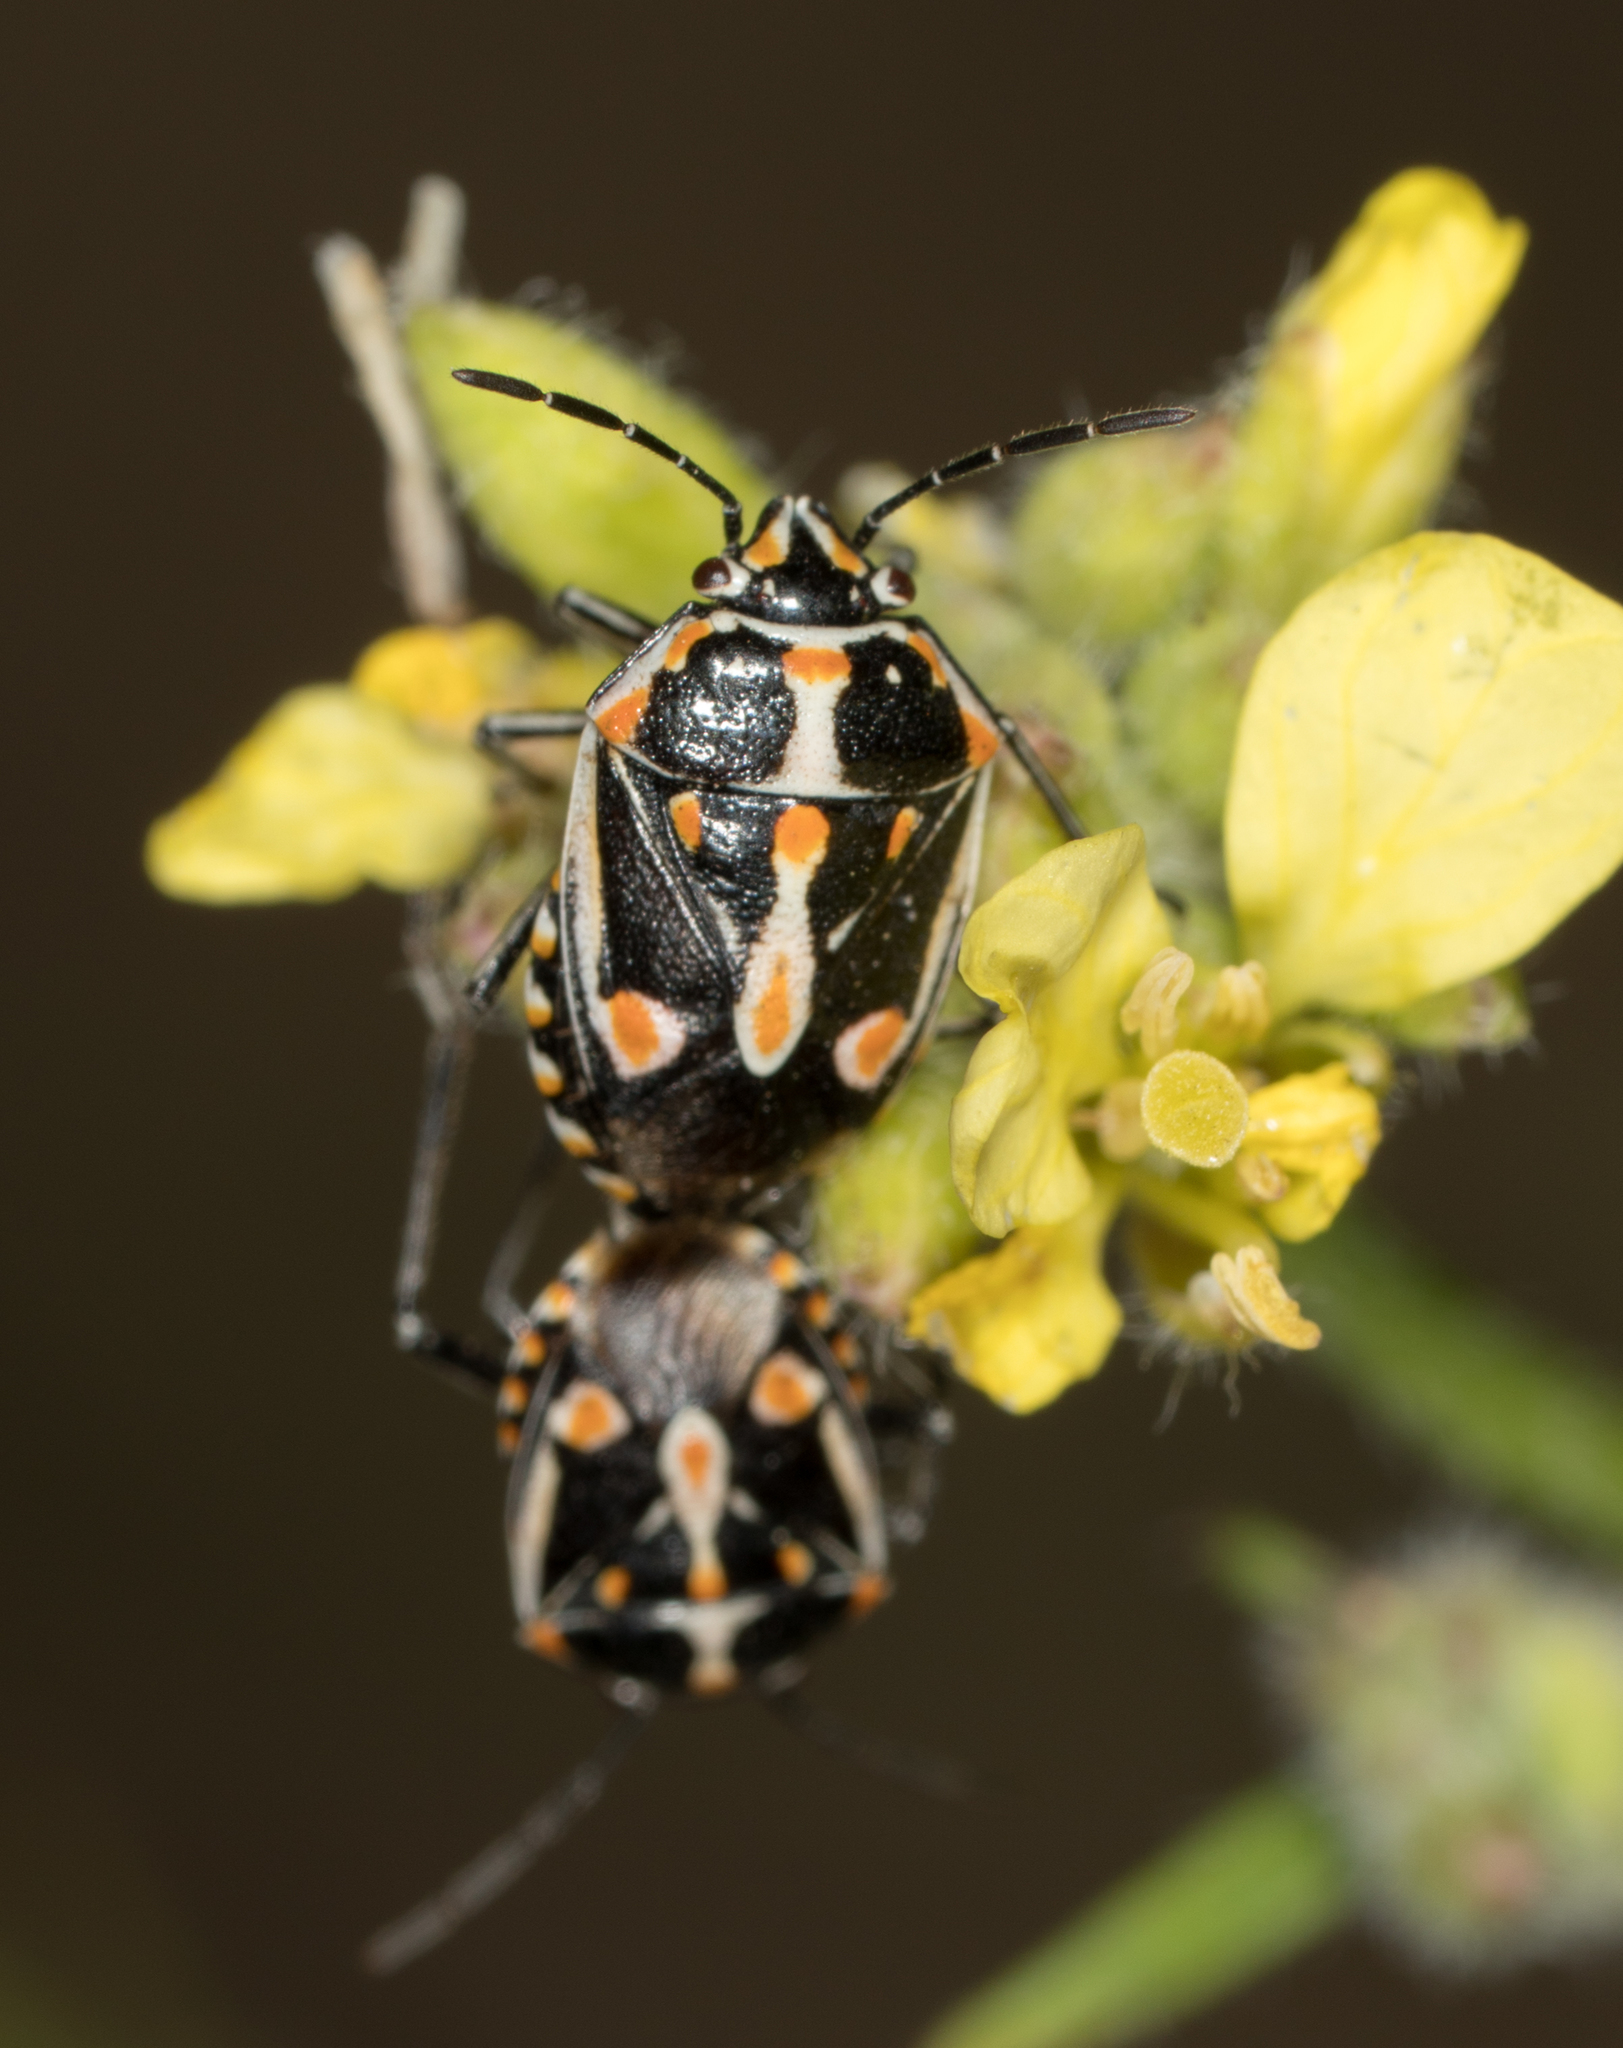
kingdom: Animalia
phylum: Arthropoda
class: Insecta
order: Hemiptera
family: Pentatomidae
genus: Bagrada
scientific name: Bagrada hilaris
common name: Bagrada bug
